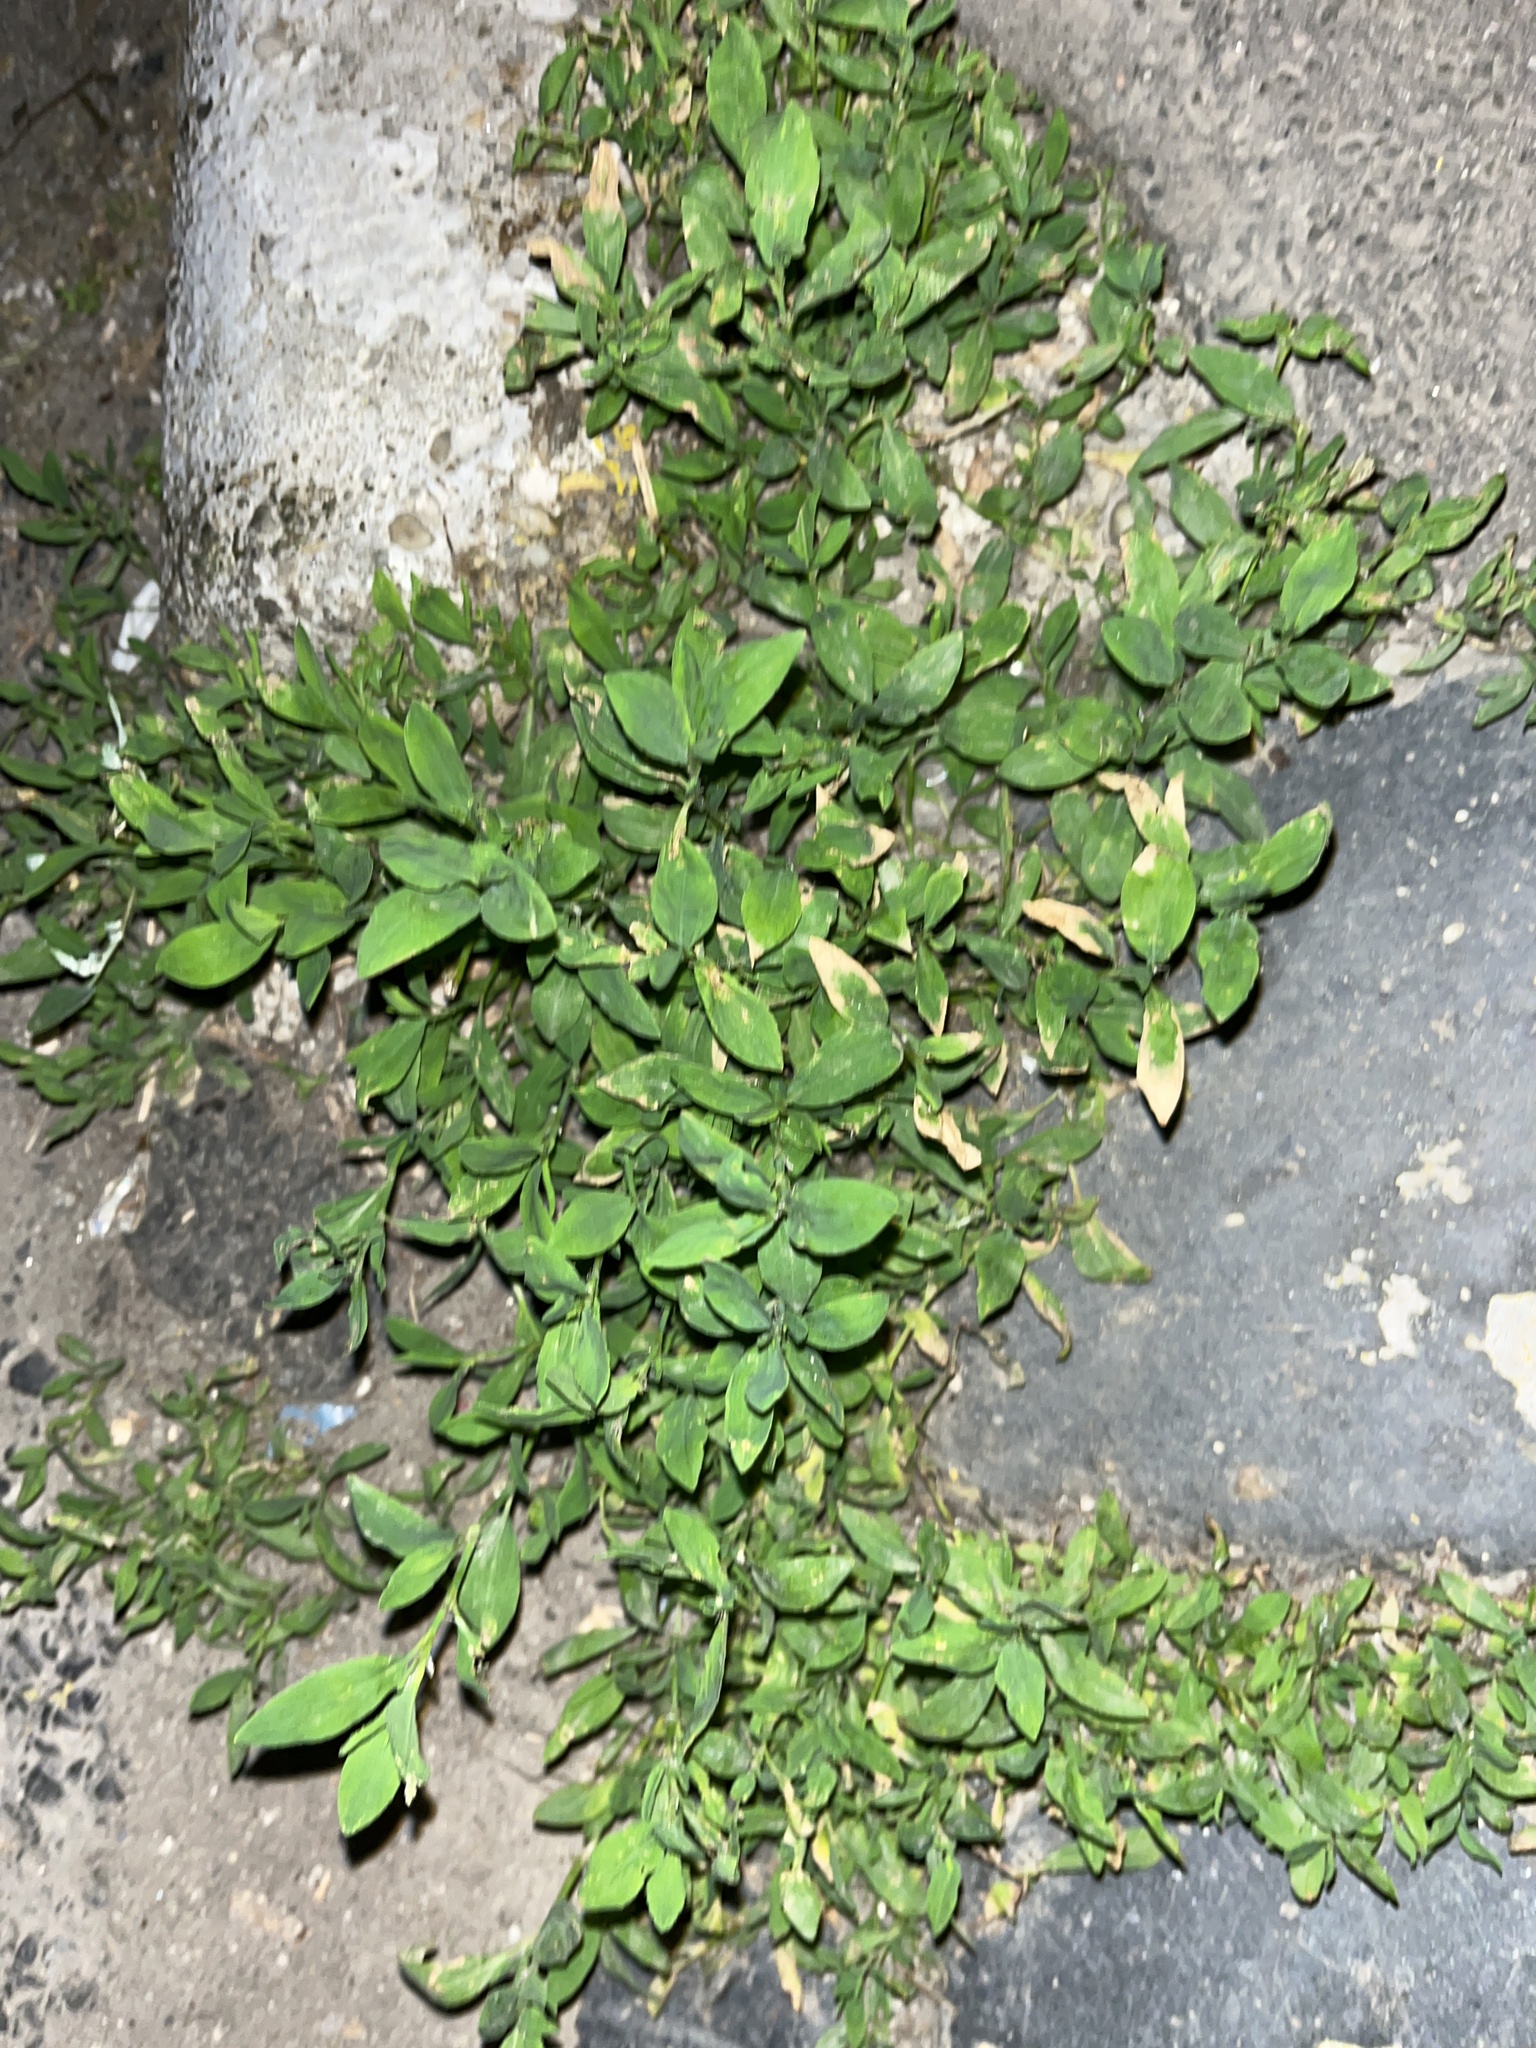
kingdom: Plantae
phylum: Tracheophyta
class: Magnoliopsida
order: Caryophyllales
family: Polygonaceae
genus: Polygonum
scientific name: Polygonum aviculare
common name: Prostrate knotweed
